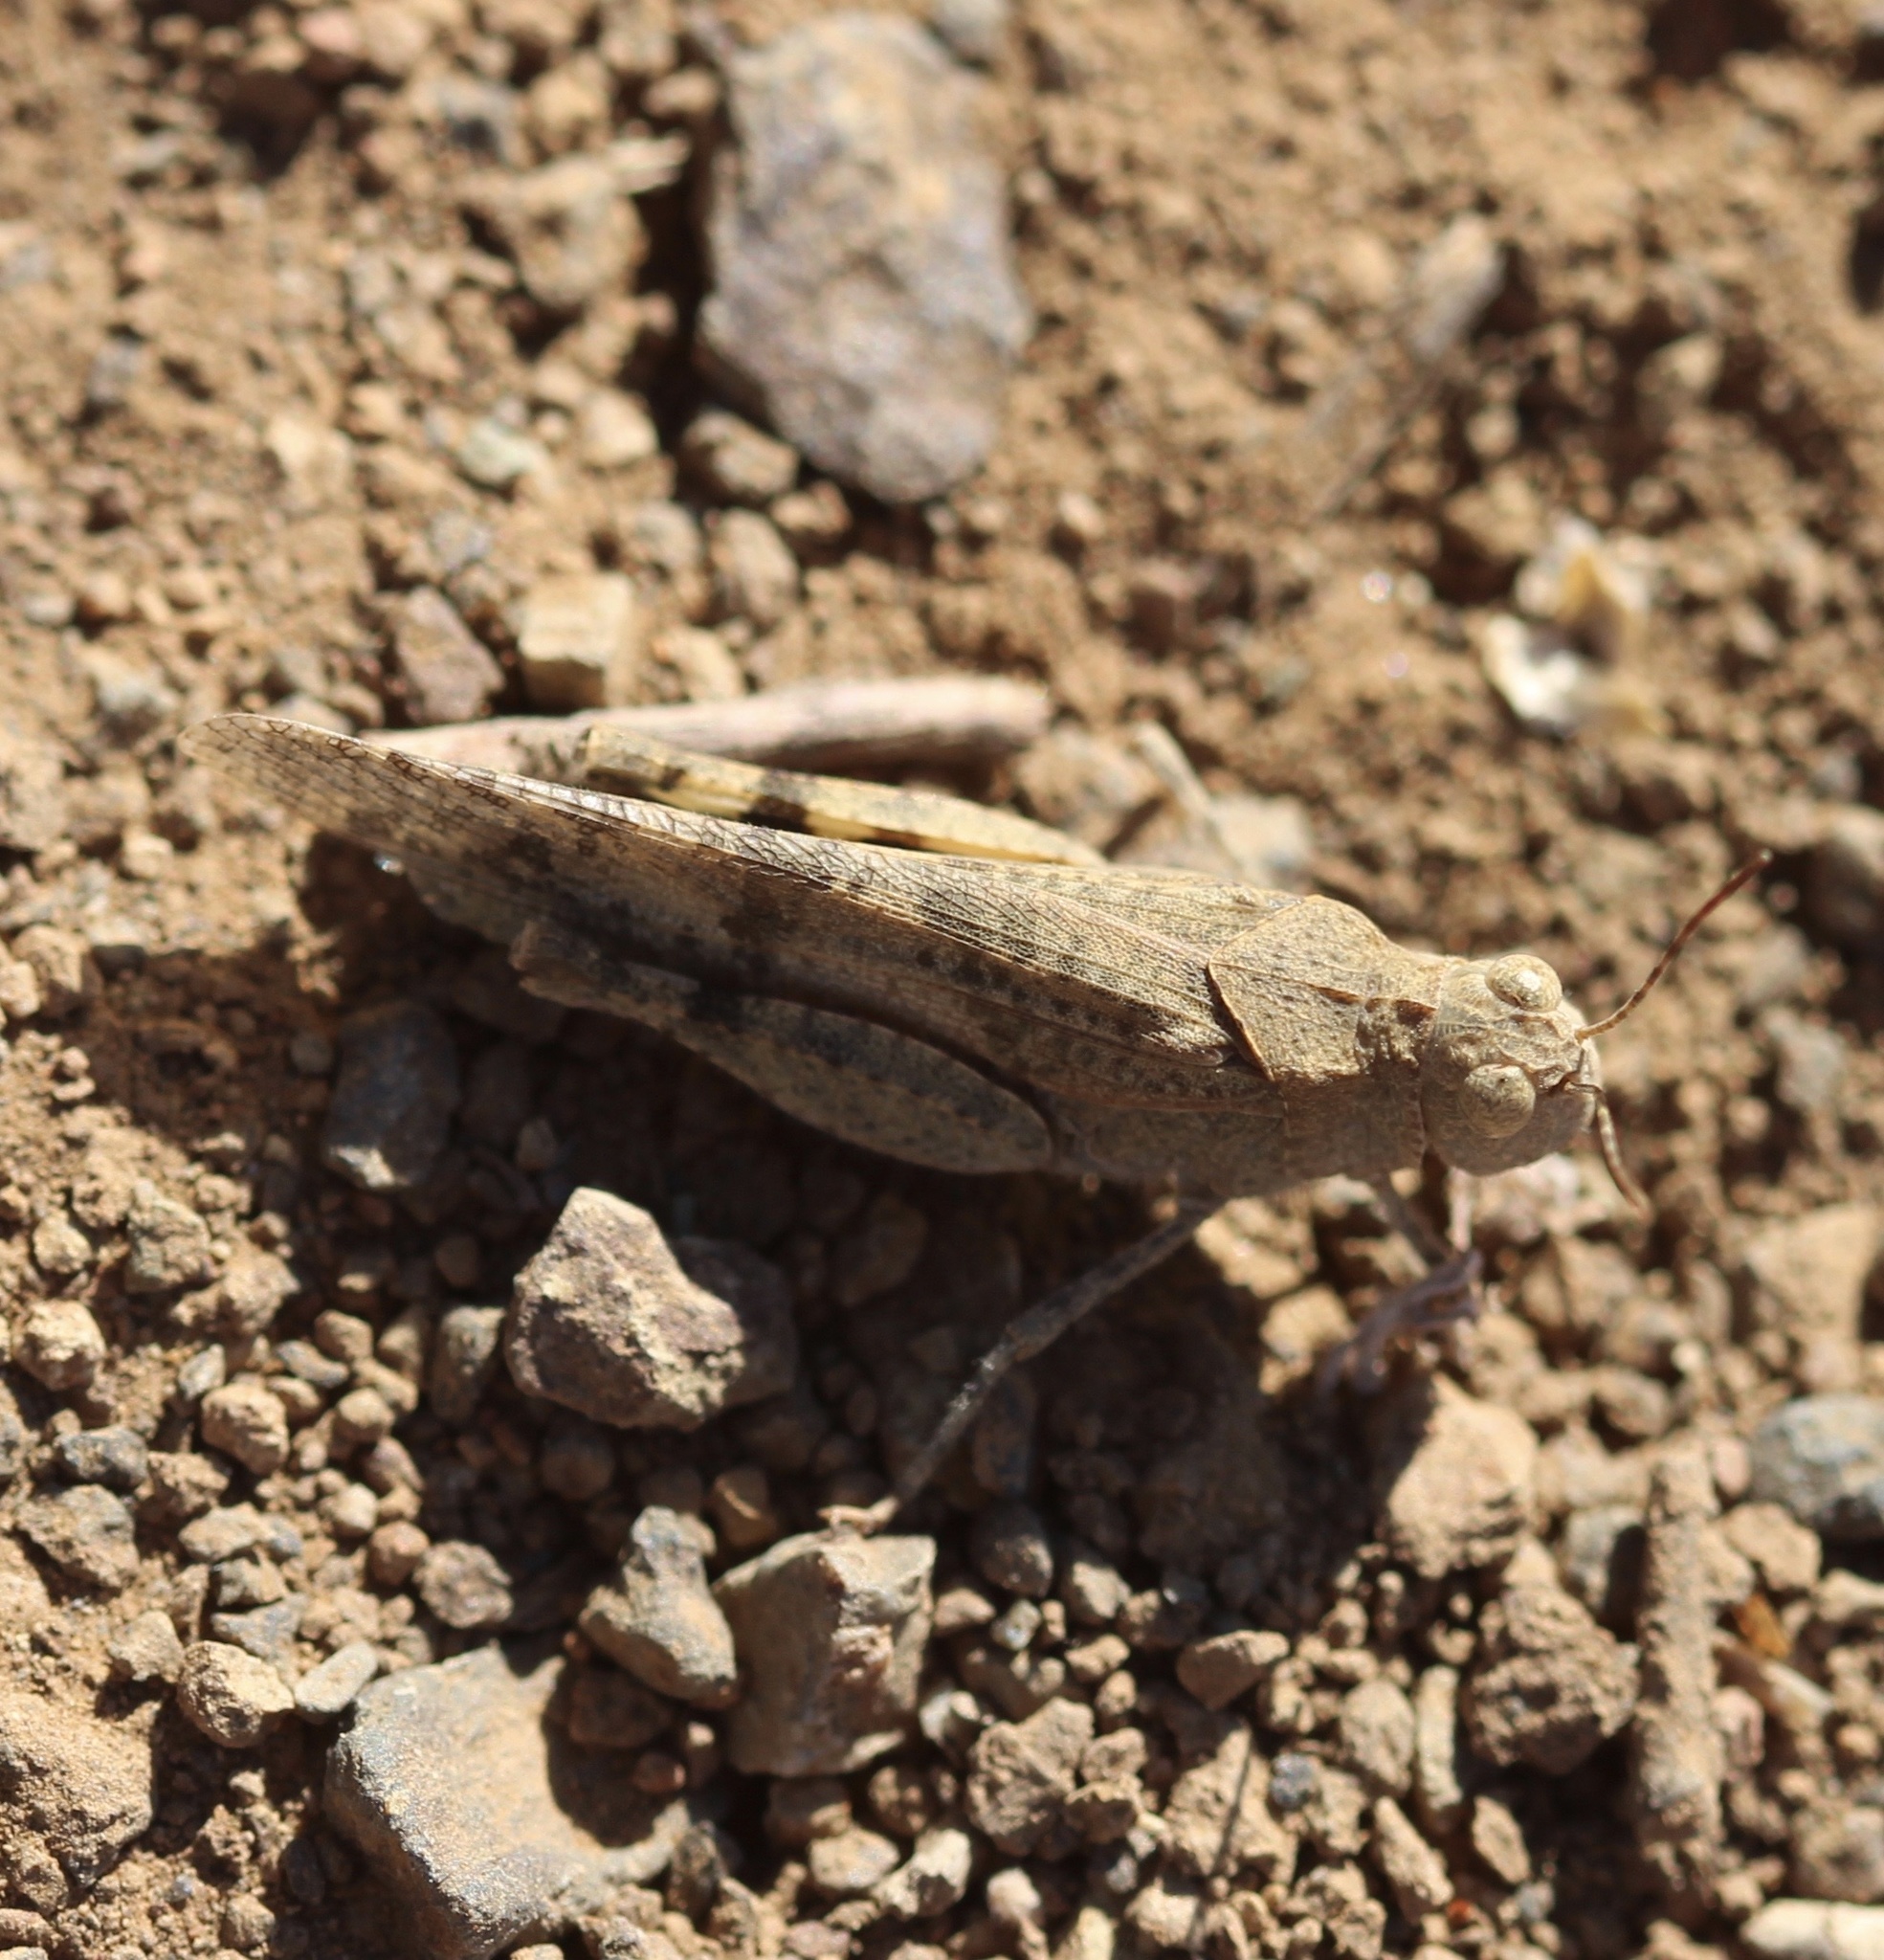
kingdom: Animalia
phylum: Arthropoda
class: Insecta
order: Orthoptera
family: Acrididae
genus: Trimerotropis
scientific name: Trimerotropis occidentalis
